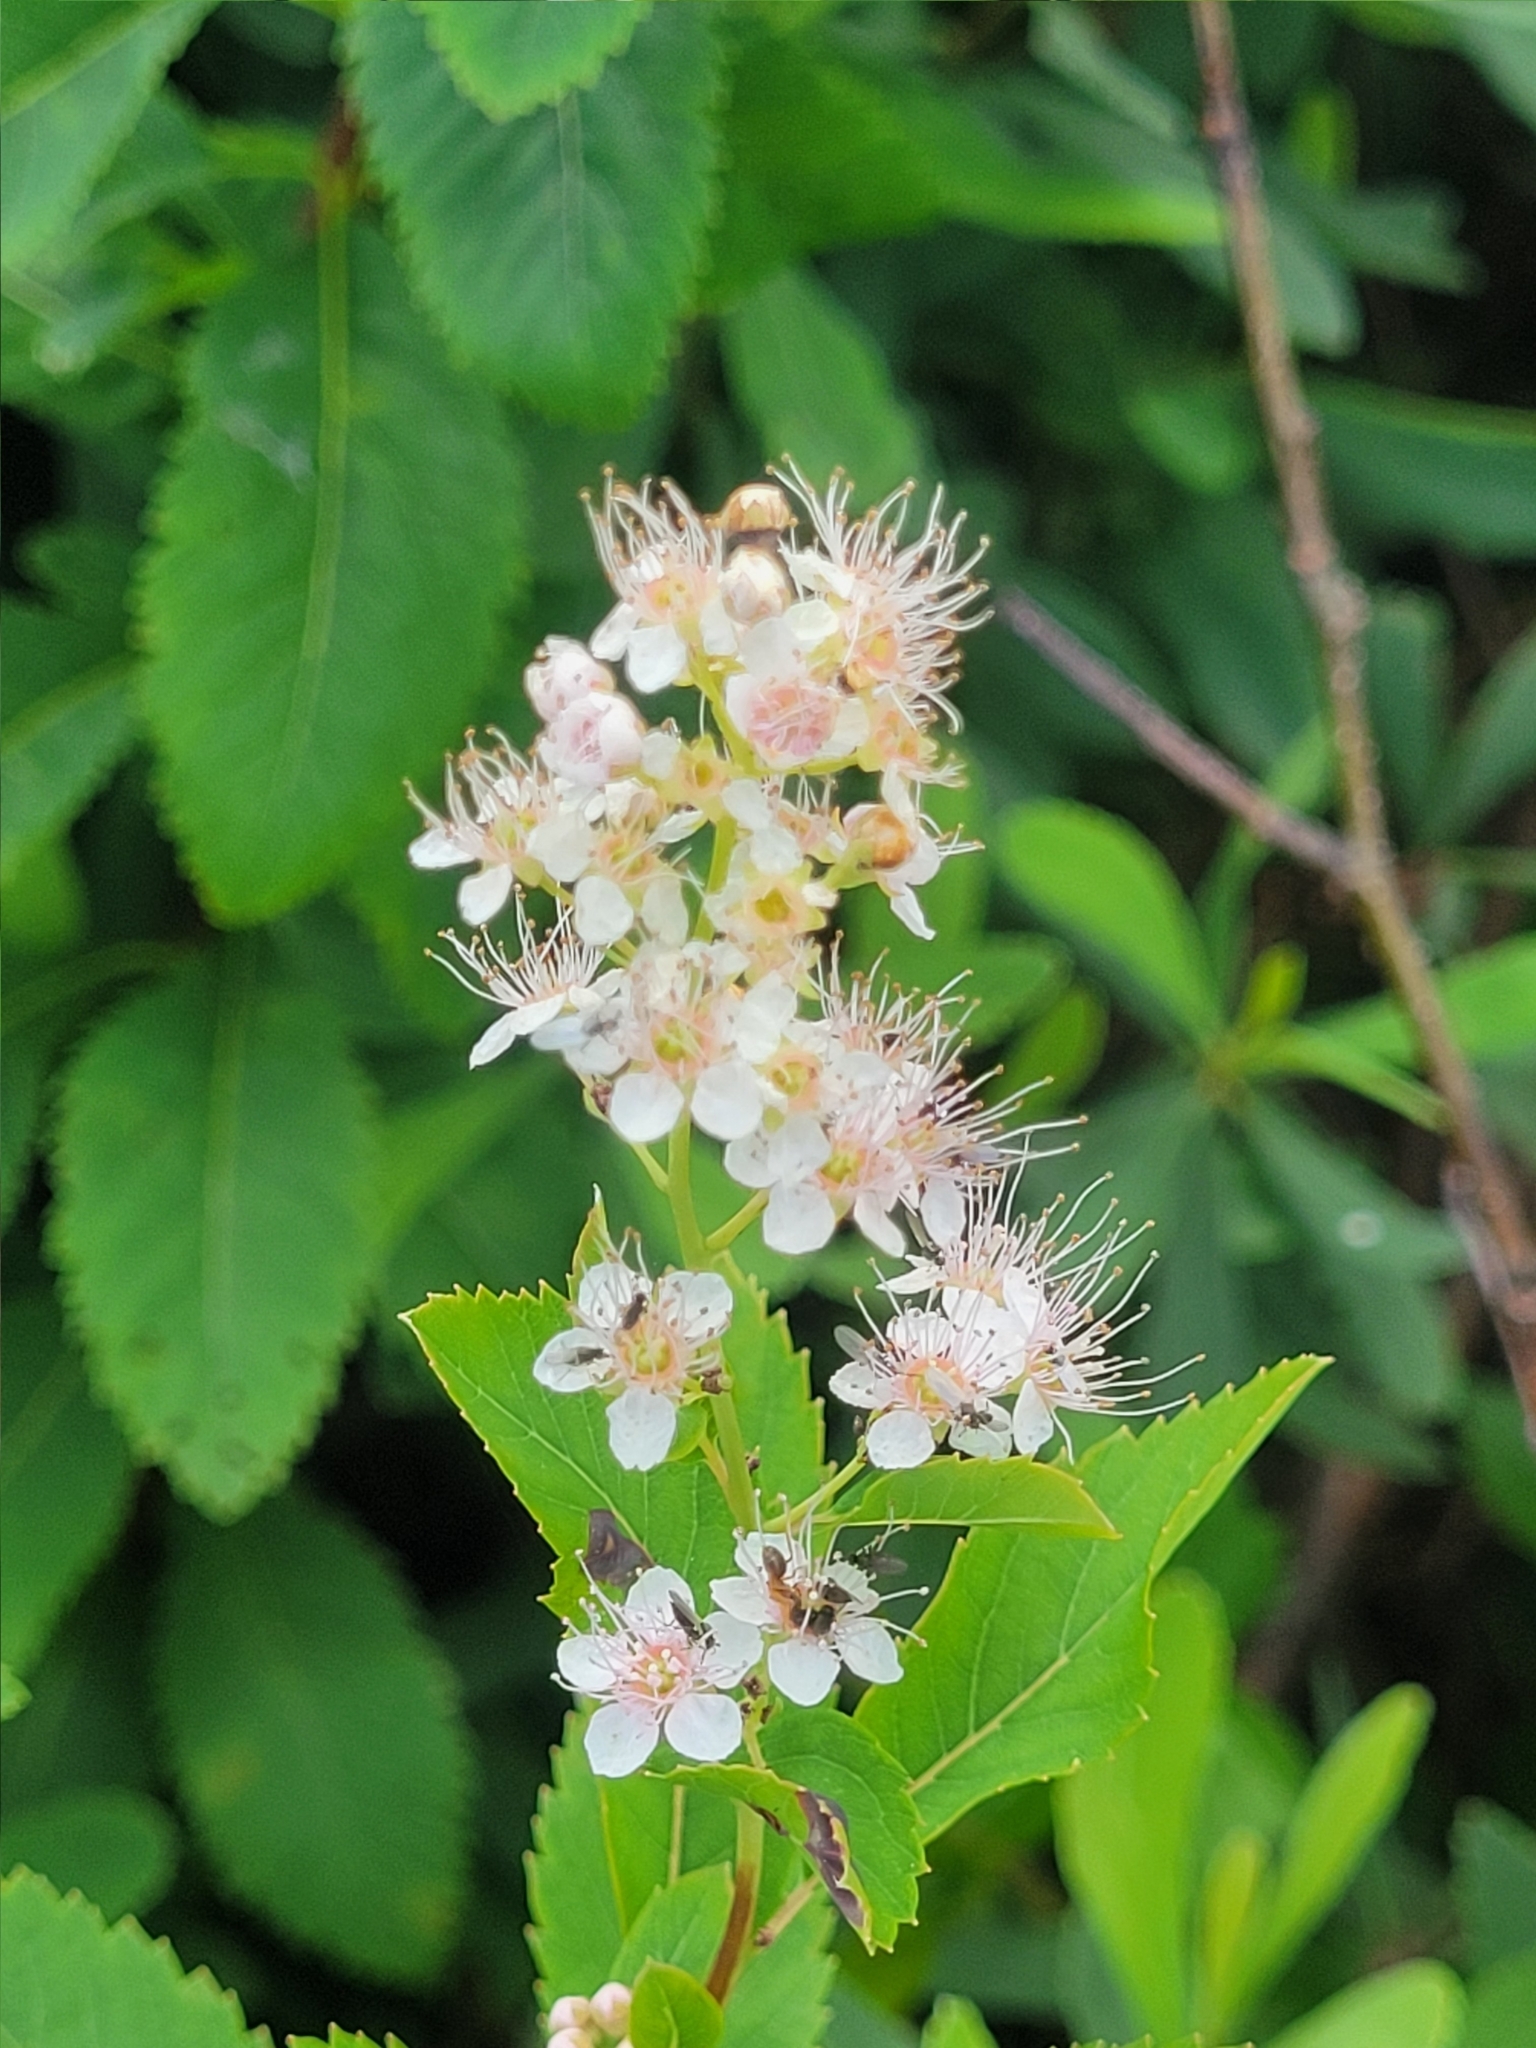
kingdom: Plantae
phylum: Tracheophyta
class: Magnoliopsida
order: Rosales
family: Rosaceae
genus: Spiraea
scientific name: Spiraea alba
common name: Pale bridewort
